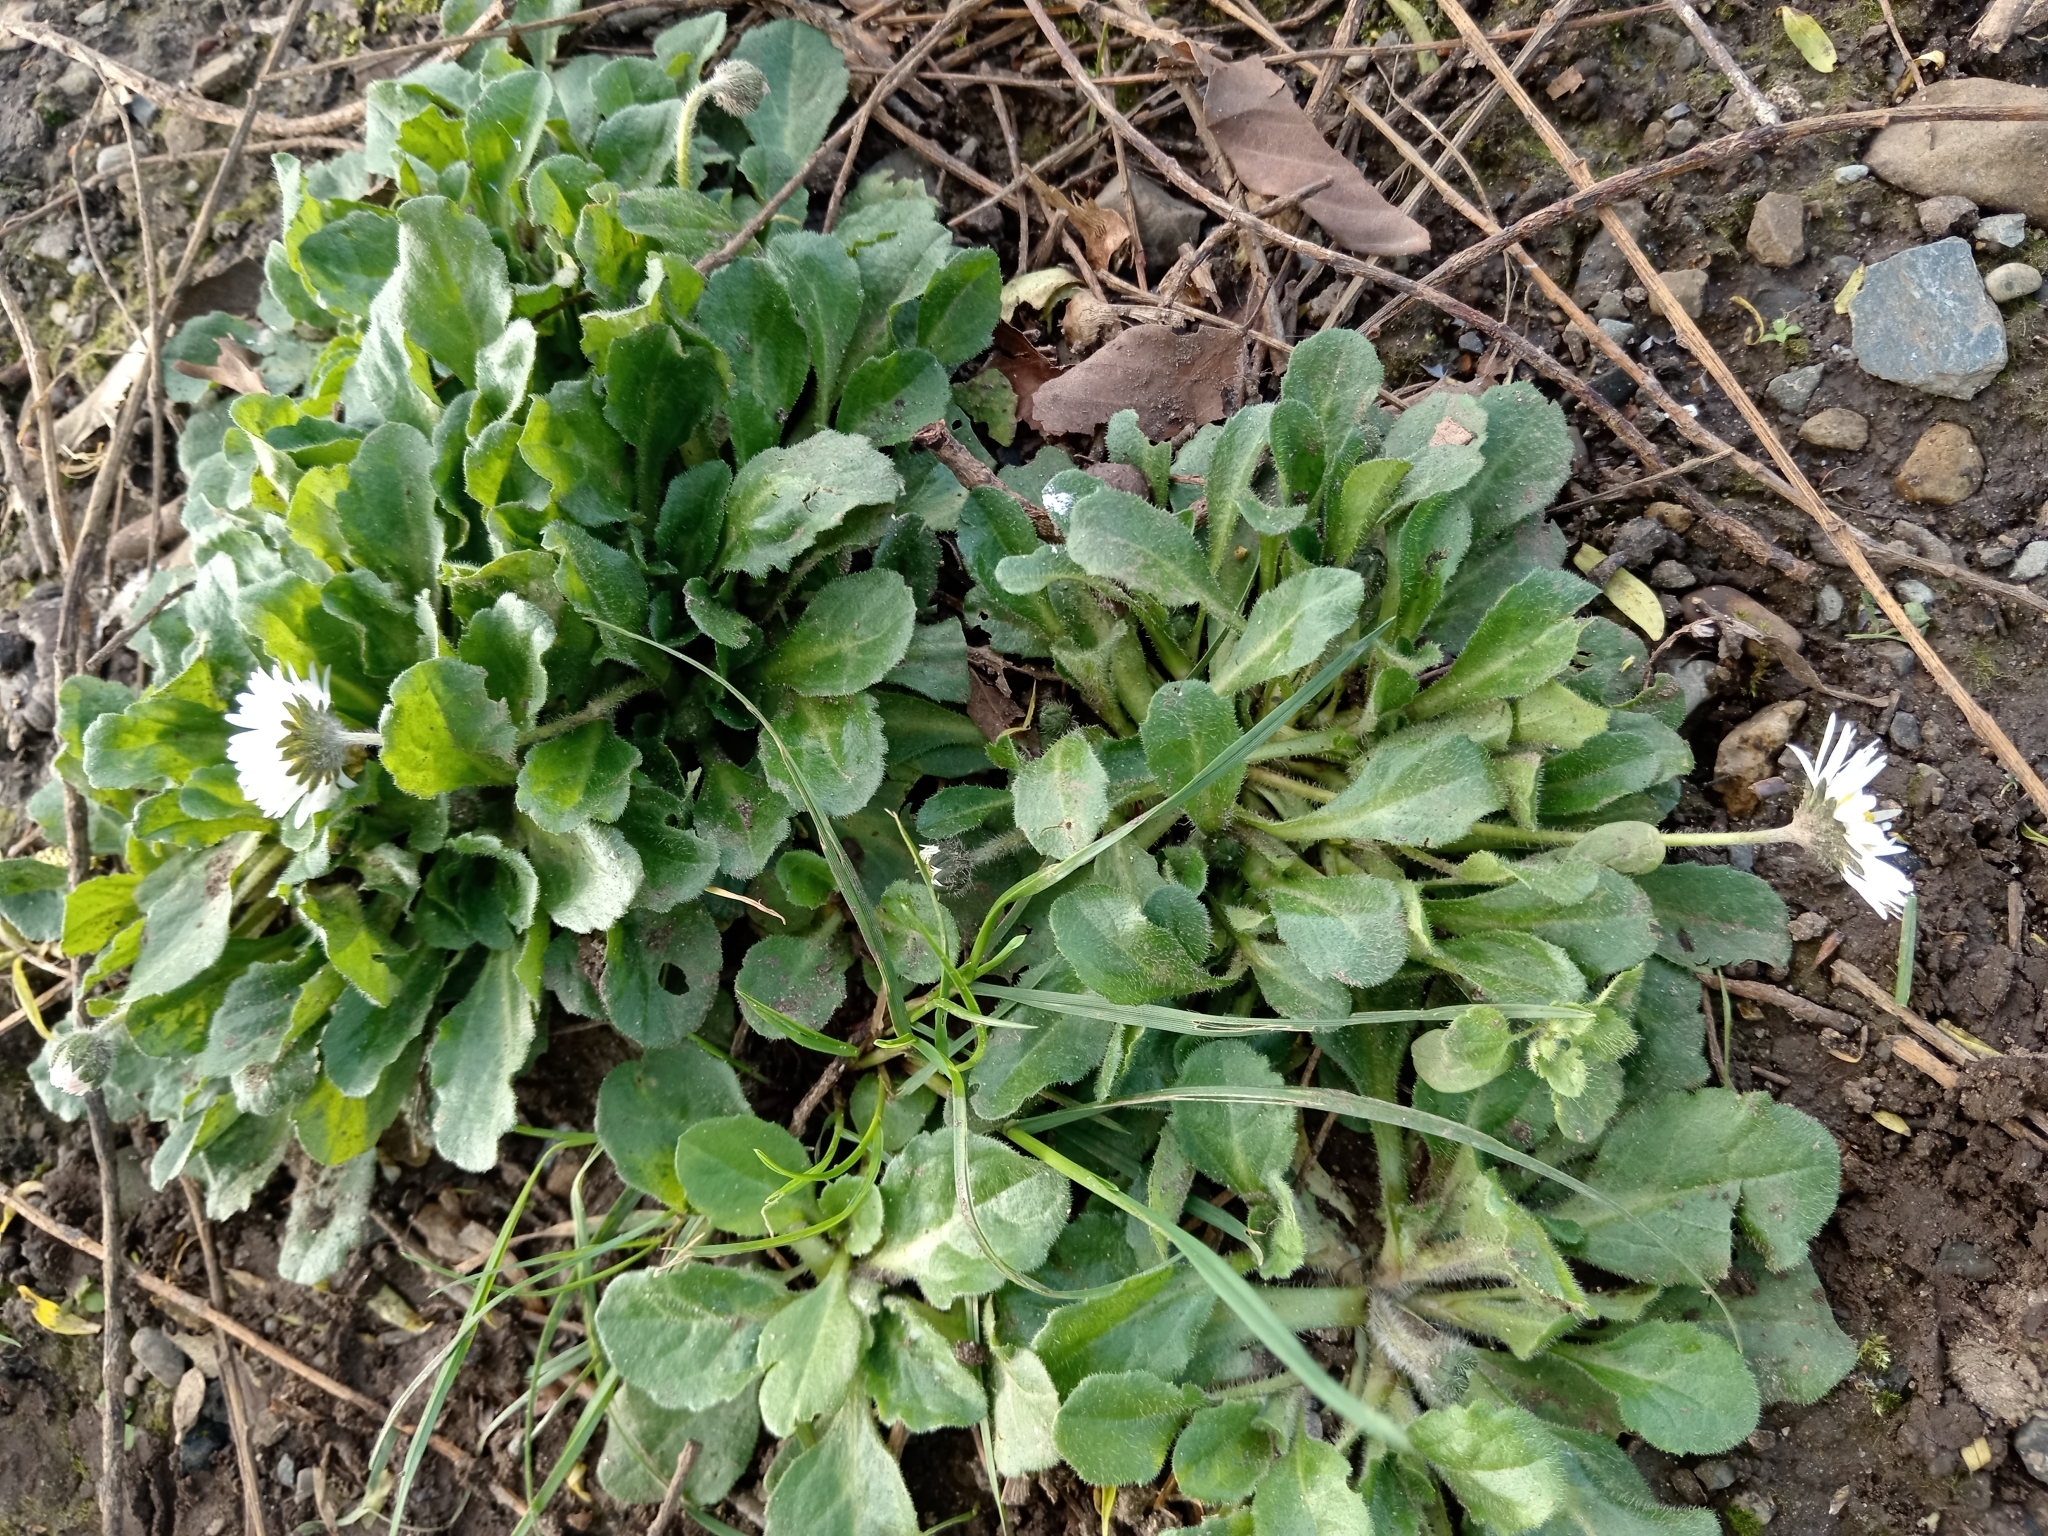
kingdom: Plantae
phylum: Tracheophyta
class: Magnoliopsida
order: Asterales
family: Asteraceae
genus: Bellis
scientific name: Bellis perennis
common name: Lawndaisy
